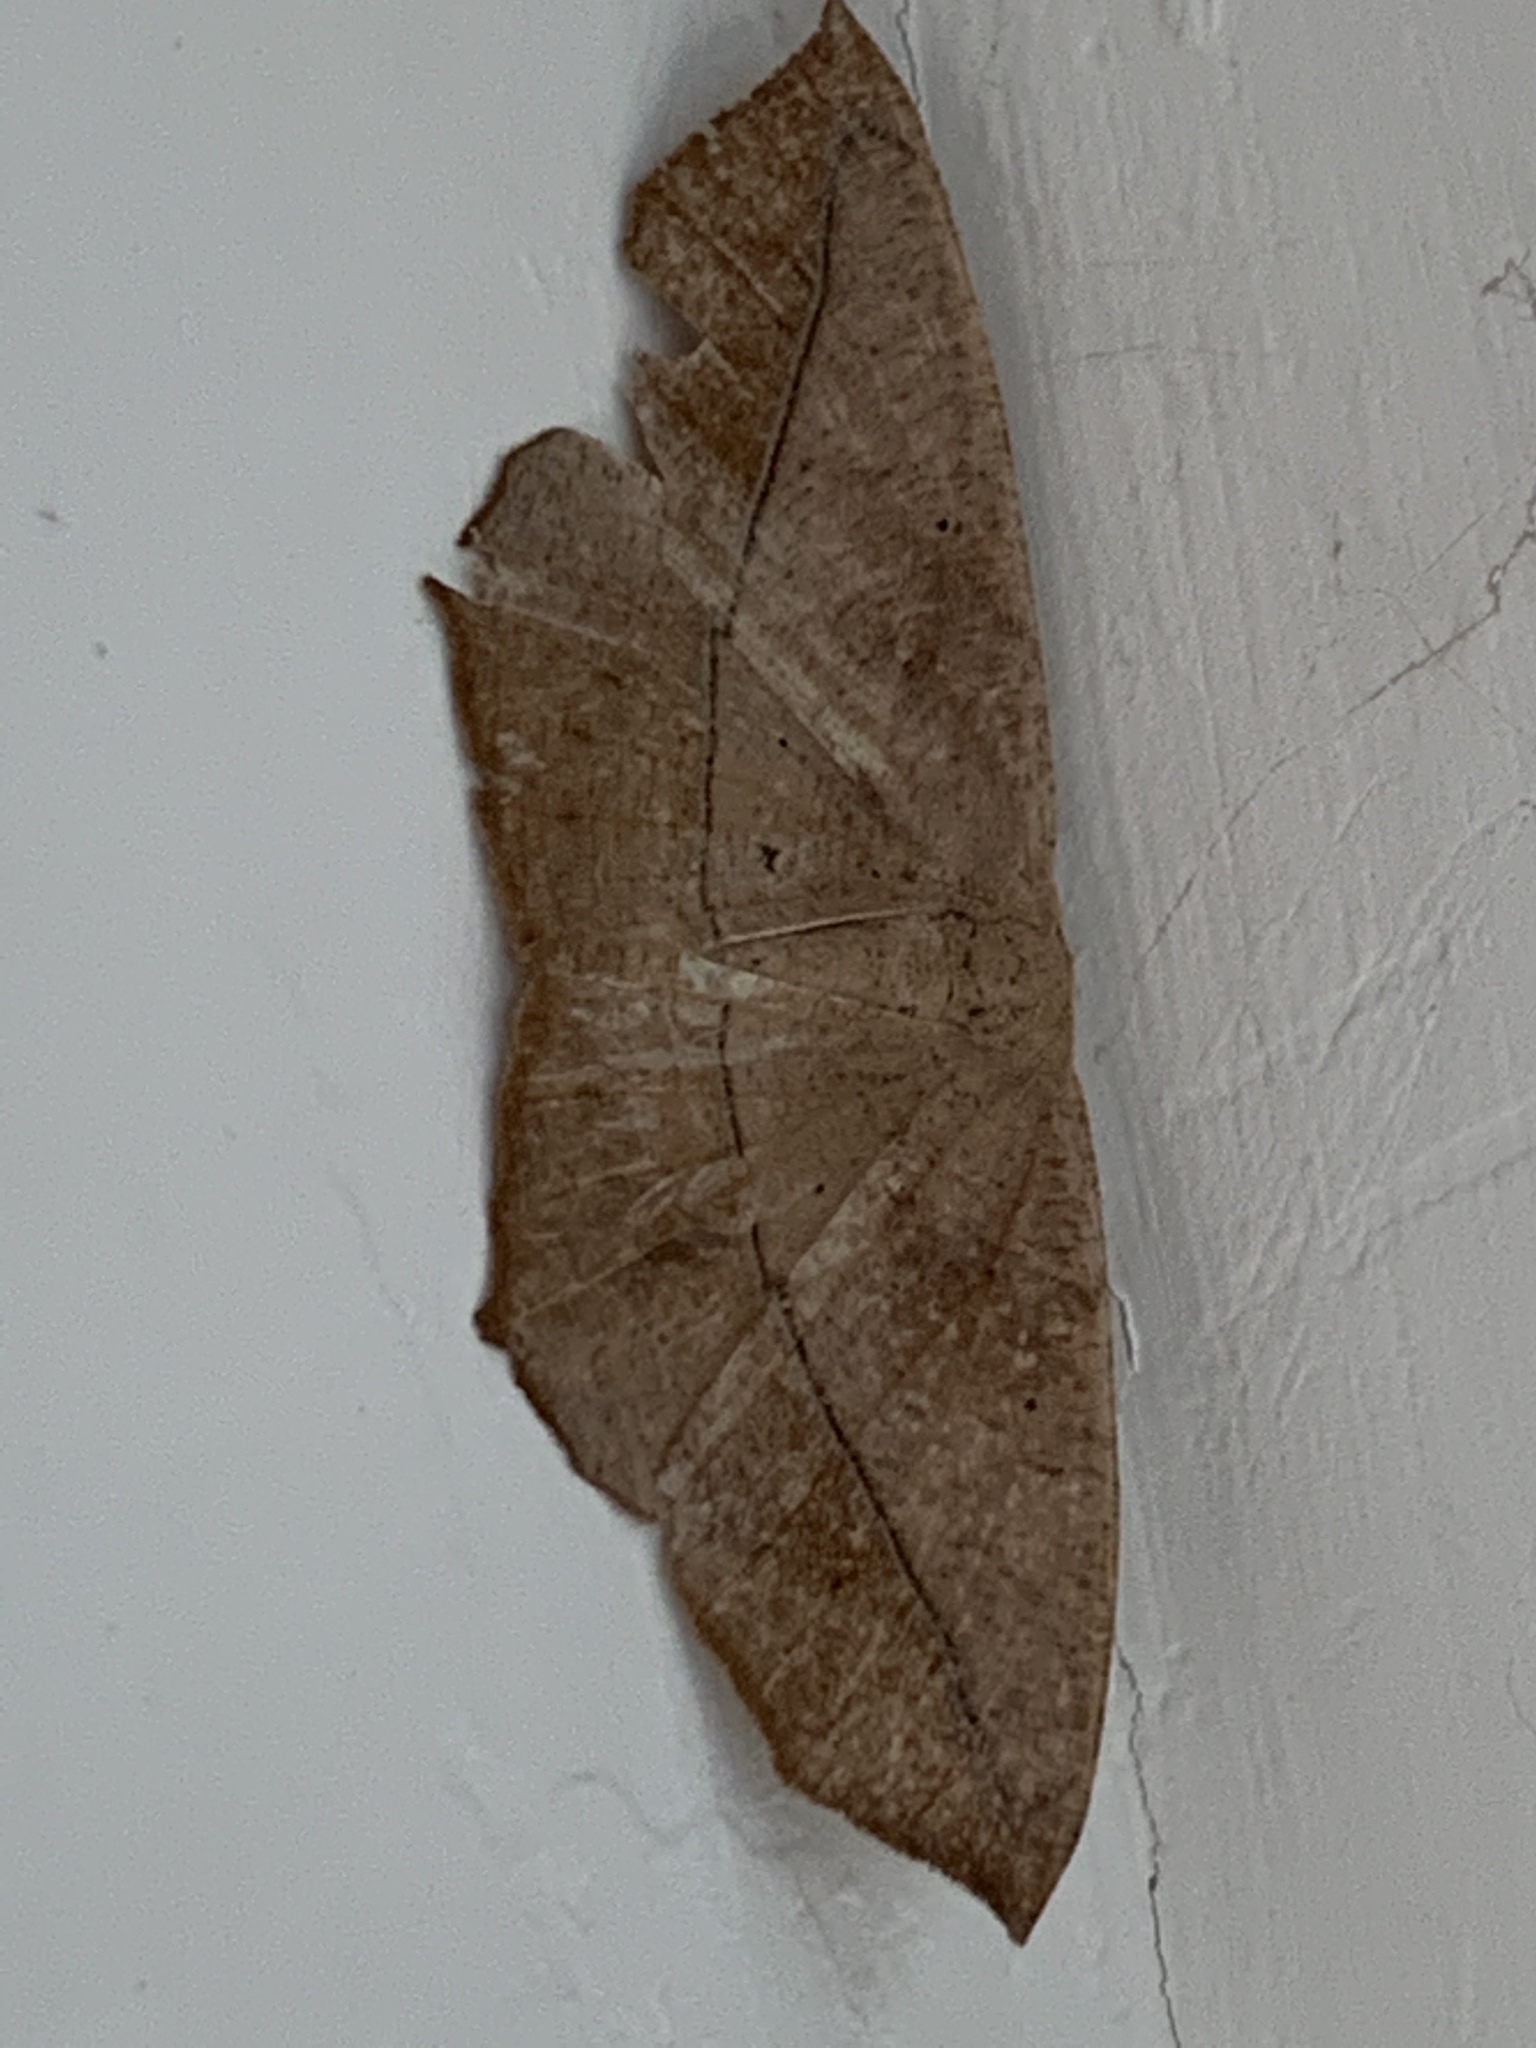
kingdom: Animalia
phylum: Arthropoda
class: Insecta
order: Lepidoptera
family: Geometridae
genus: Prochoerodes
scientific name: Prochoerodes lineola
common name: Large maple spanworm
